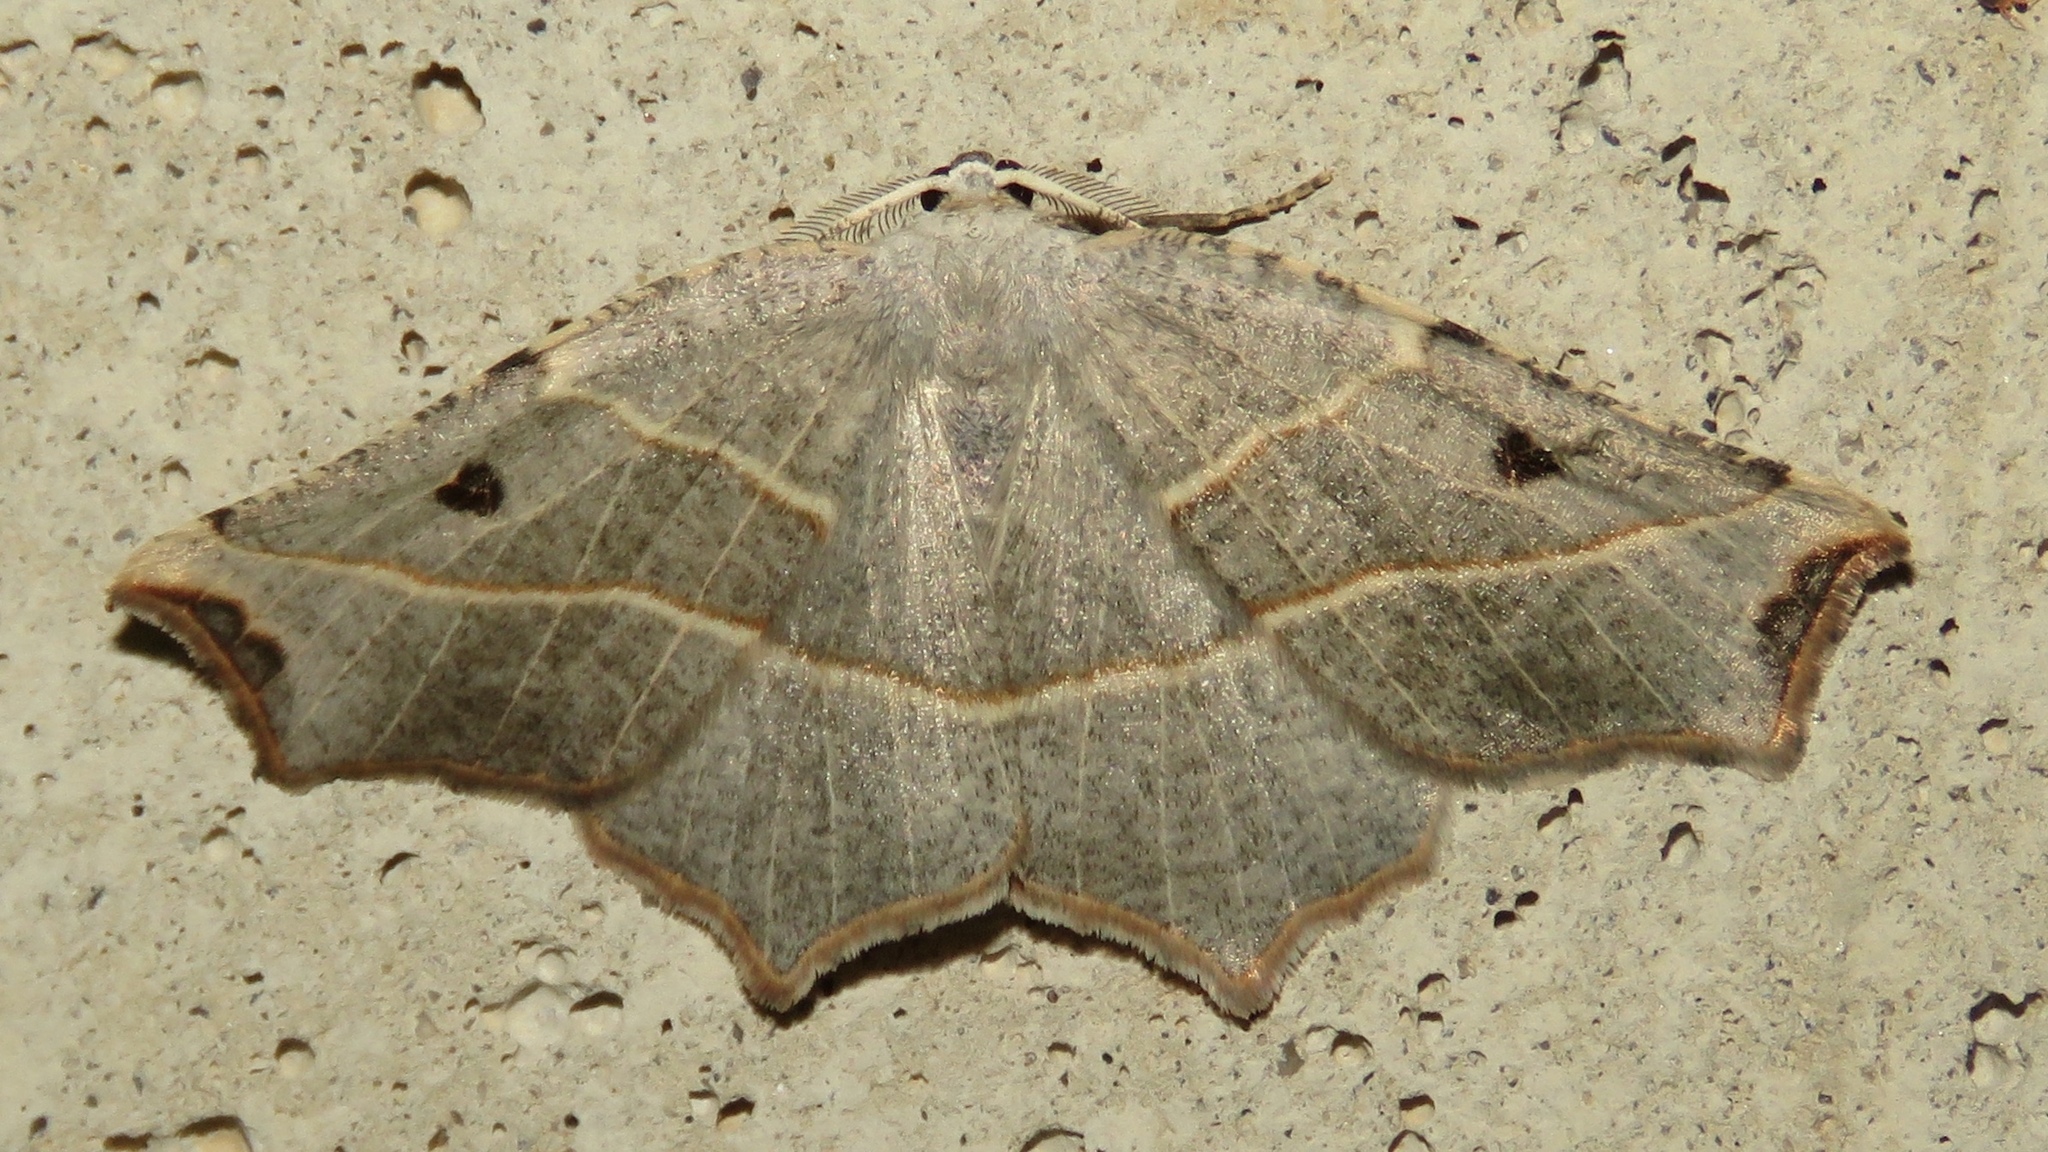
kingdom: Animalia
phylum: Arthropoda
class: Insecta
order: Lepidoptera
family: Geometridae
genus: Metanema
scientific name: Metanema inatomaria
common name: Pale metanema
